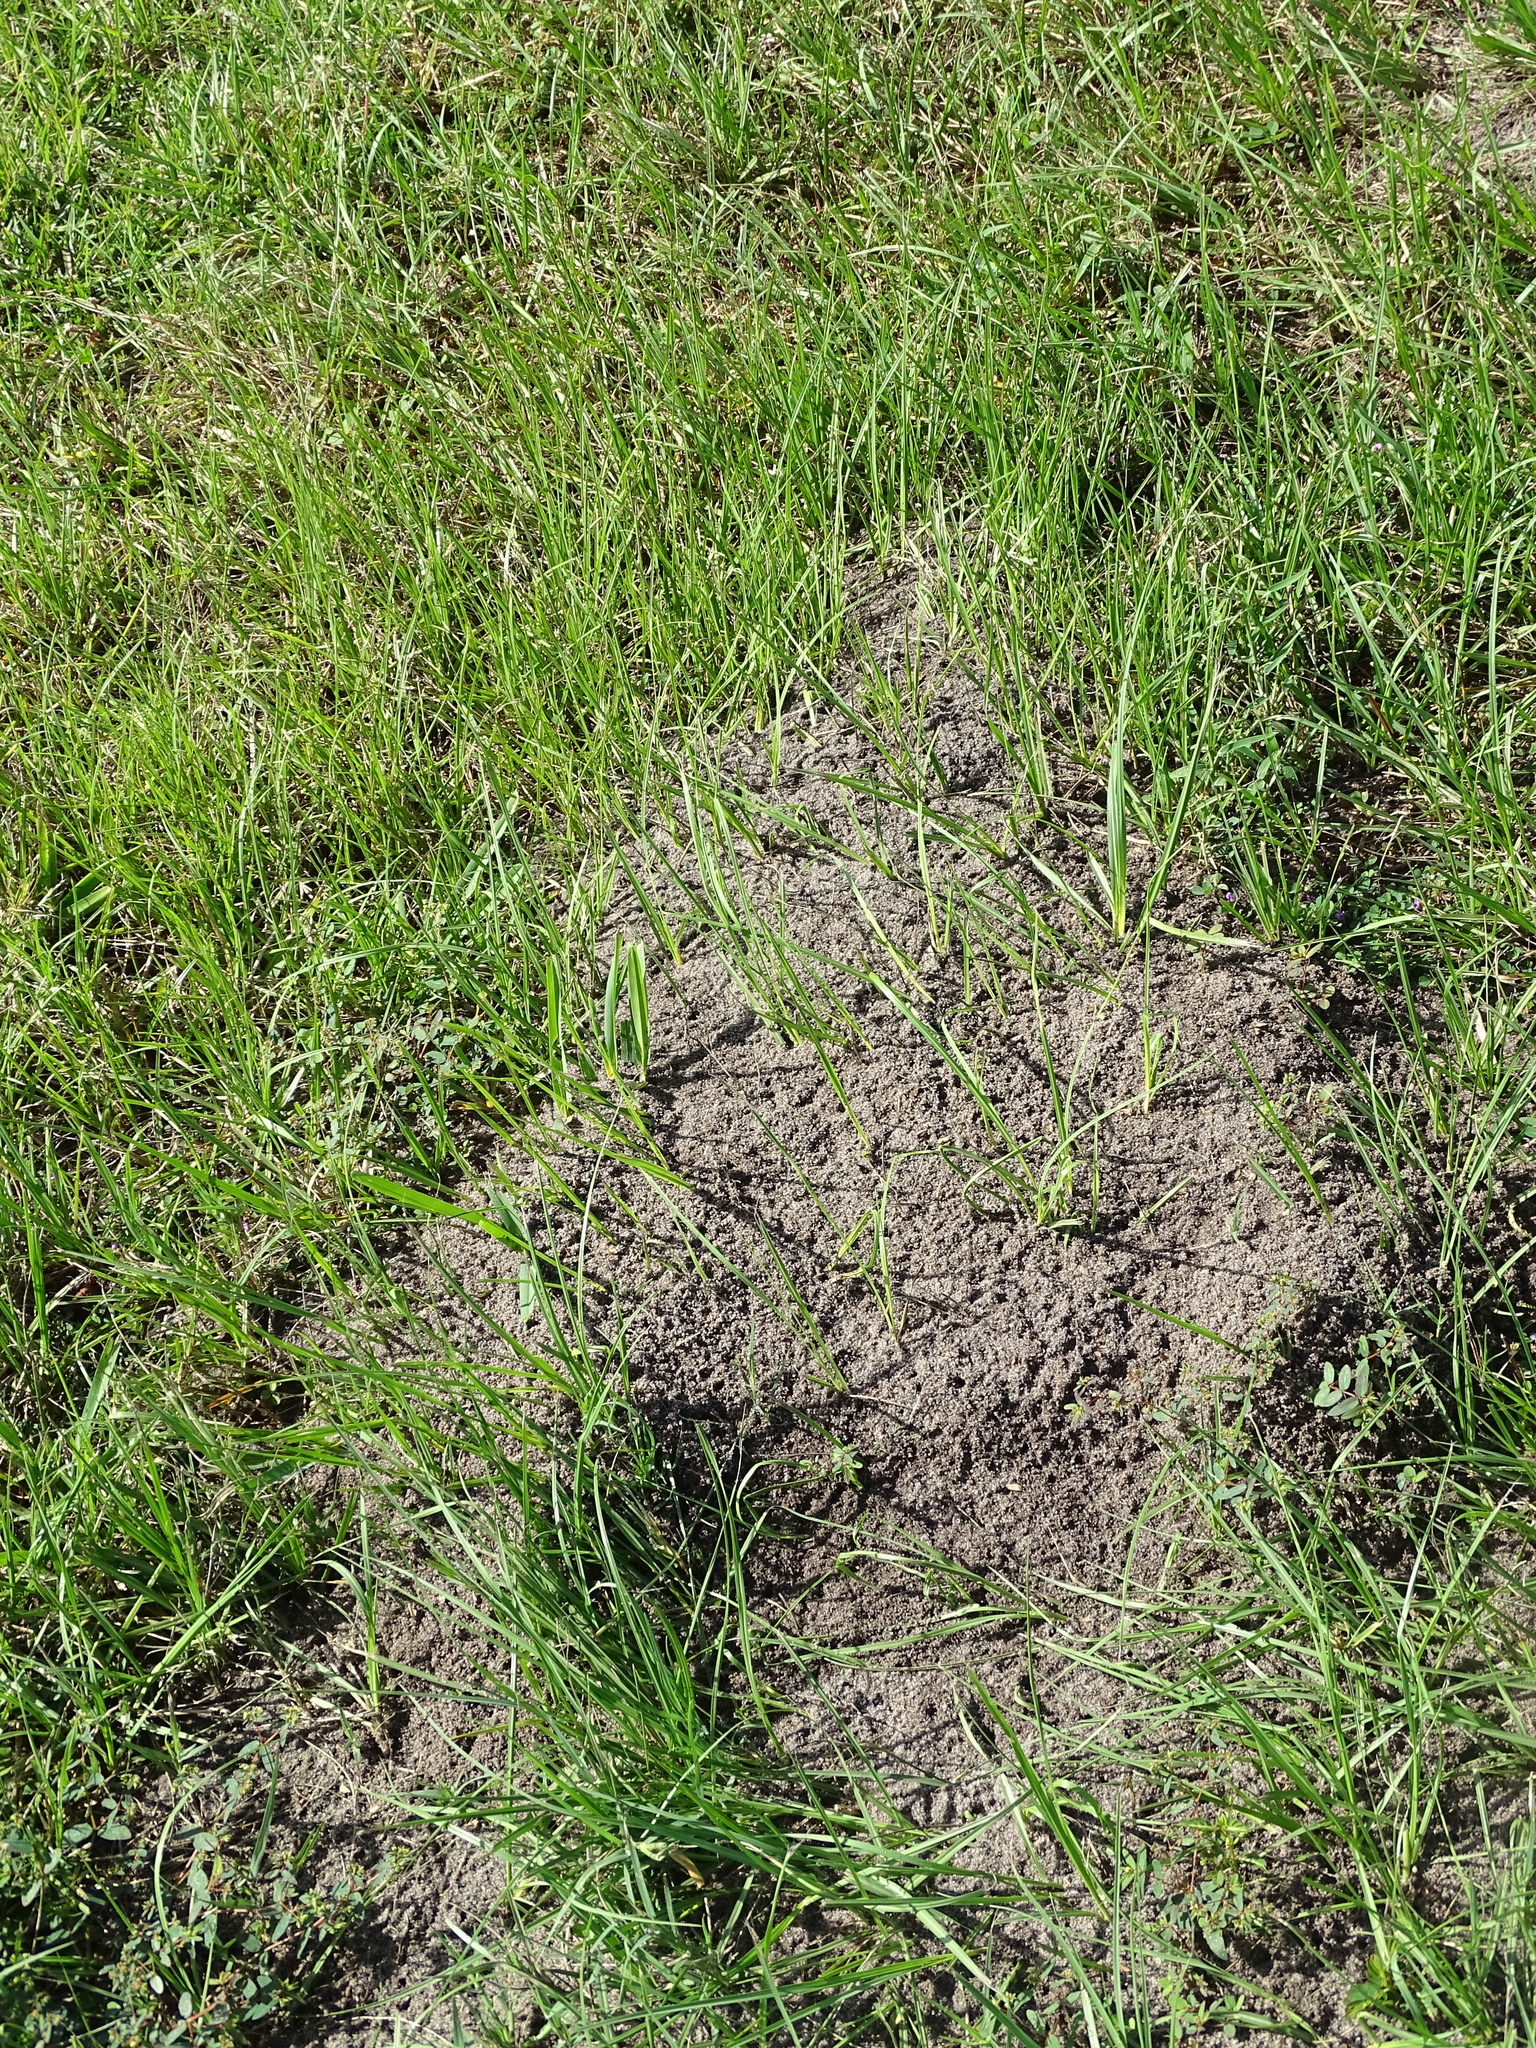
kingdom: Animalia
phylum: Arthropoda
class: Insecta
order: Hymenoptera
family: Formicidae
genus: Solenopsis
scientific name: Solenopsis invicta
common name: Red imported fire ant
